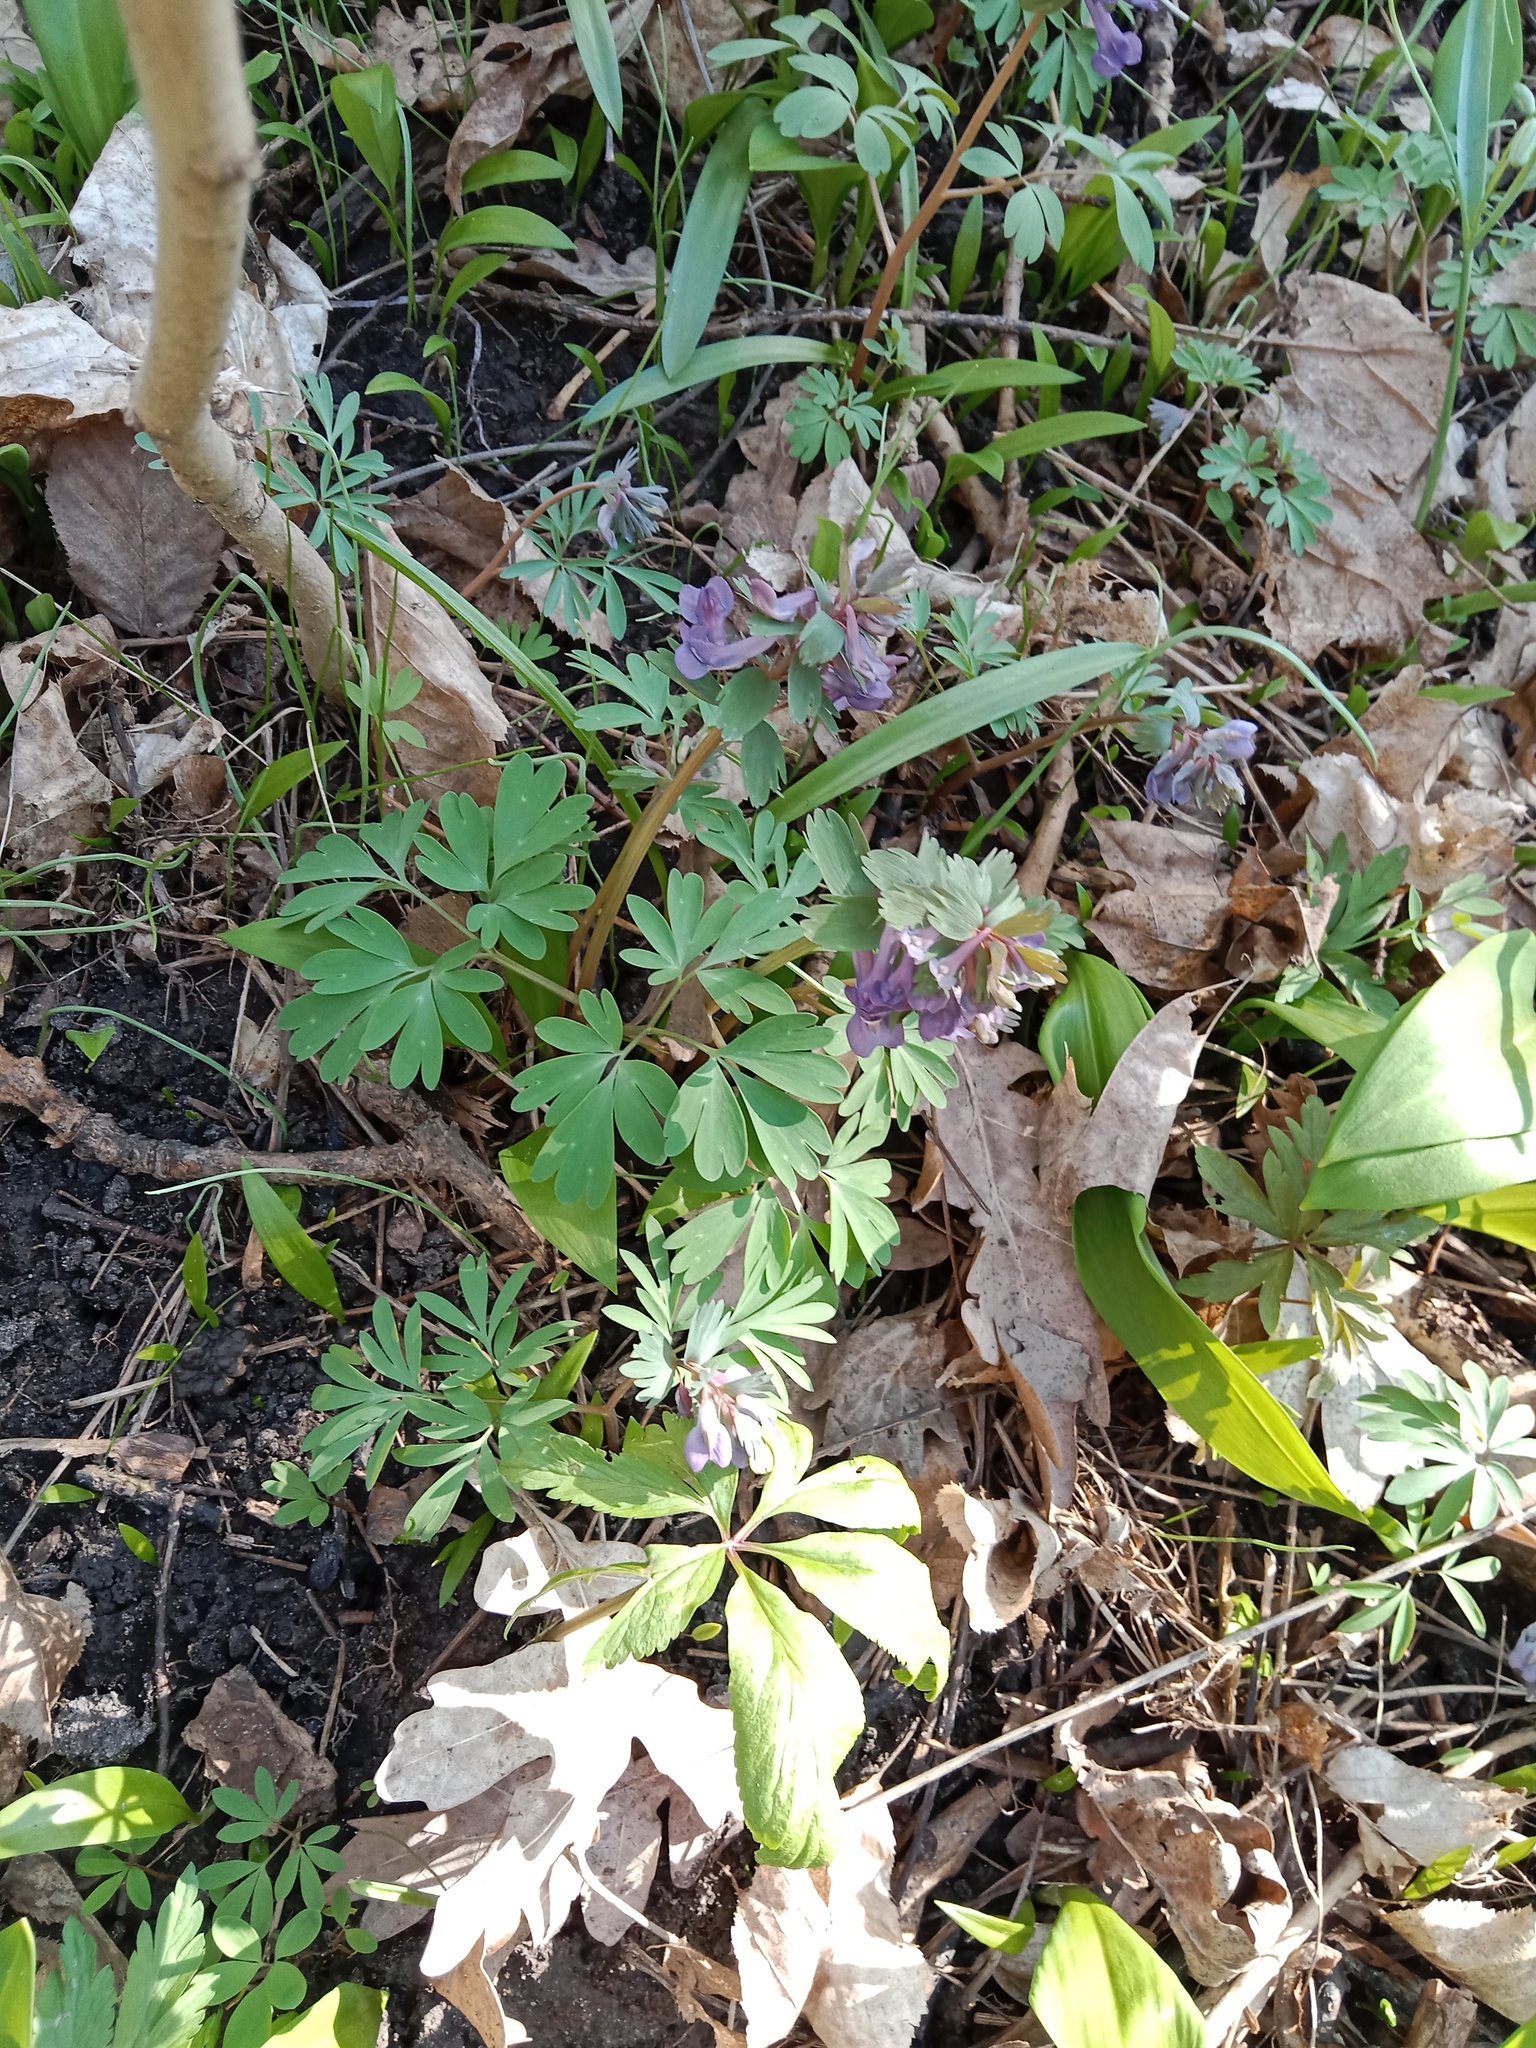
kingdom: Plantae
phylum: Tracheophyta
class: Magnoliopsida
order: Ranunculales
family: Papaveraceae
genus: Corydalis
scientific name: Corydalis solida
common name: Bird-in-a-bush
